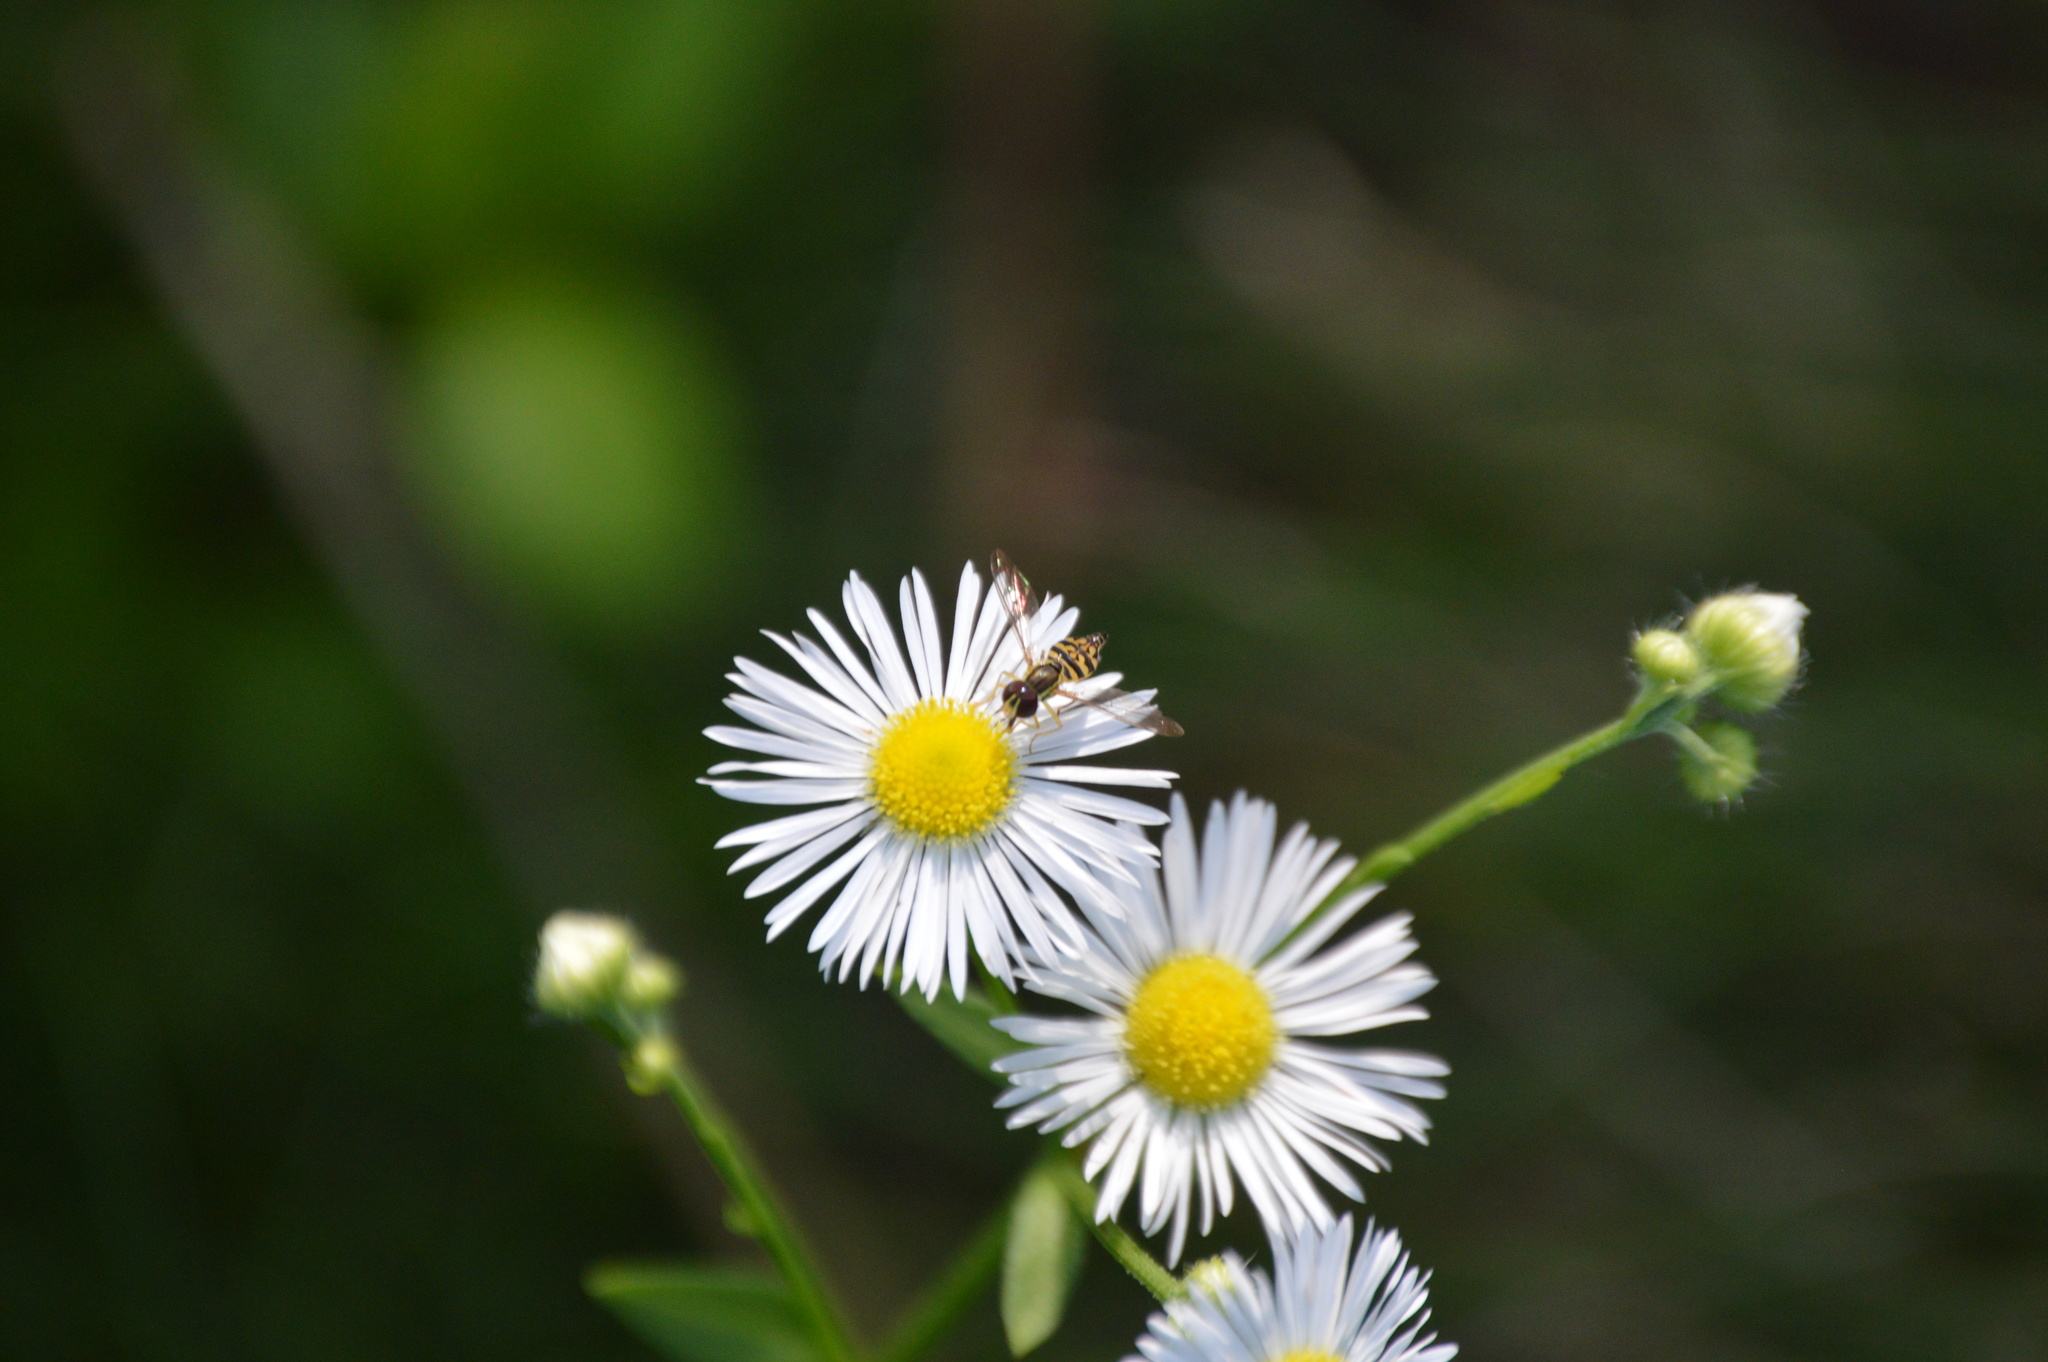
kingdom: Animalia
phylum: Arthropoda
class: Insecta
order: Diptera
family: Syrphidae
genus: Toxomerus
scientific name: Toxomerus geminatus
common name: Eastern calligrapher
